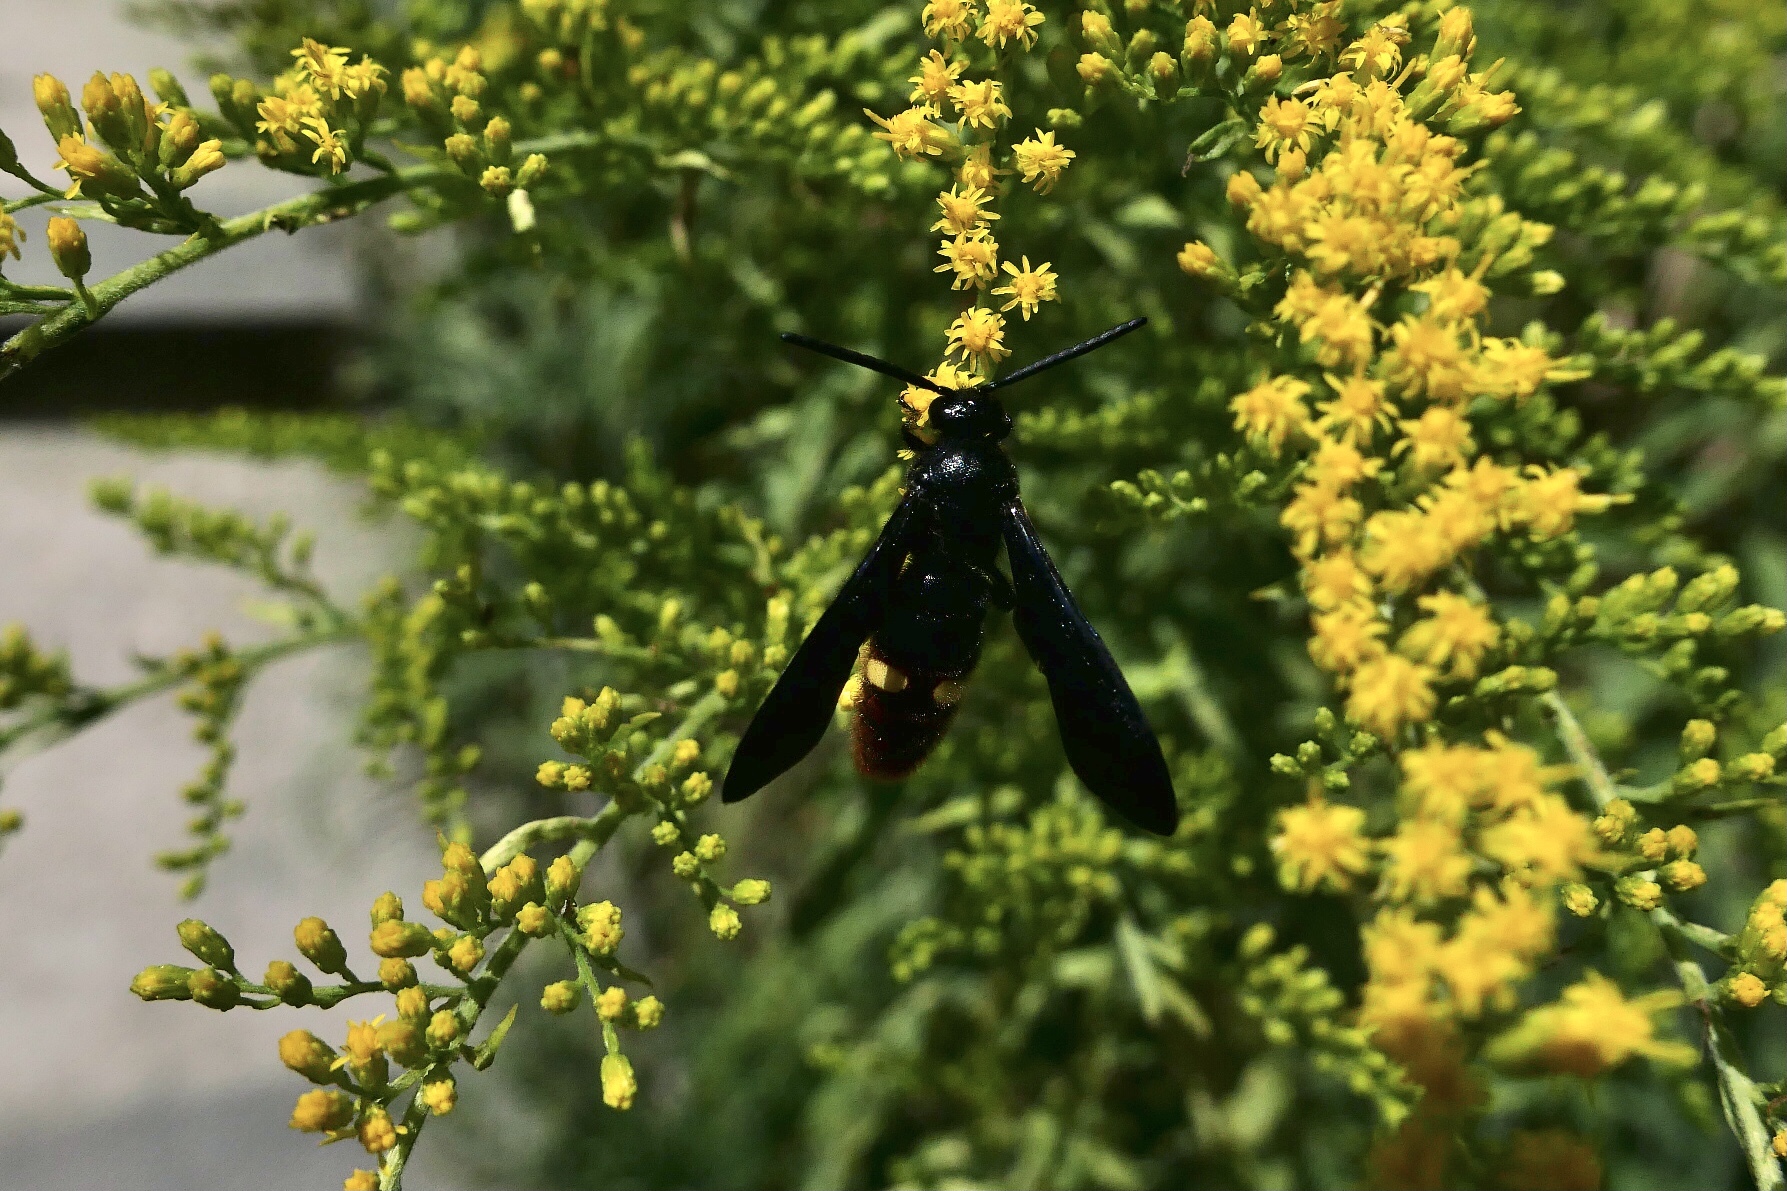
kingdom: Animalia
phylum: Arthropoda
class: Insecta
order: Hymenoptera
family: Scoliidae
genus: Scolia
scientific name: Scolia dubia
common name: Blue-winged scoliid wasp
